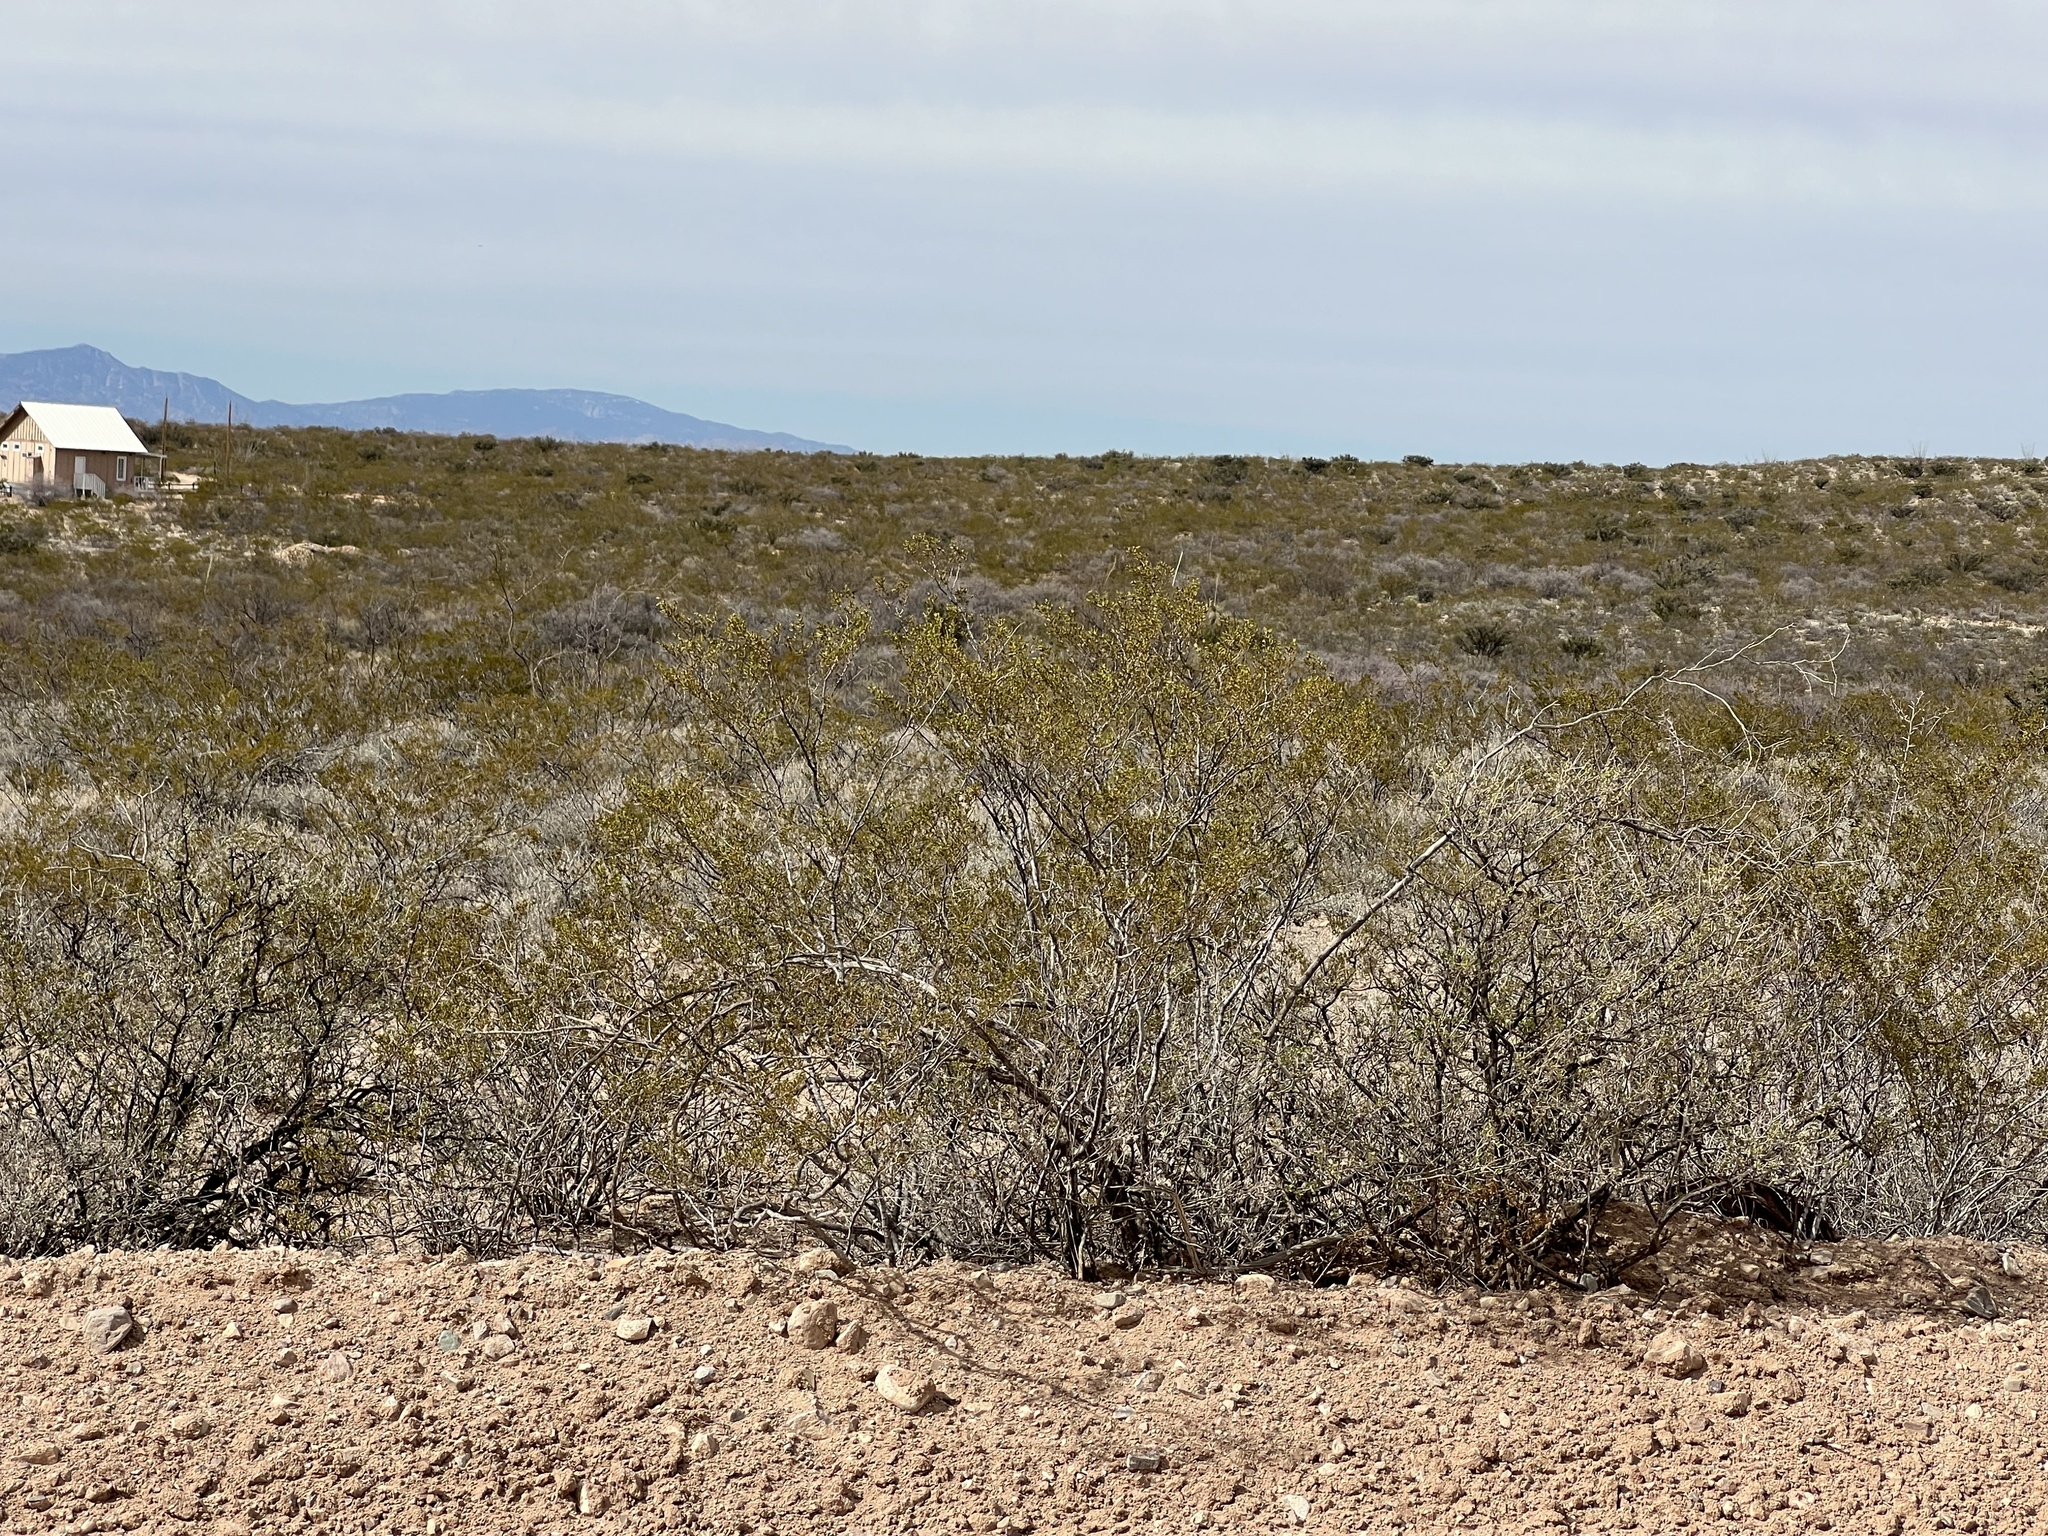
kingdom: Plantae
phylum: Tracheophyta
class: Magnoliopsida
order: Zygophyllales
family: Zygophyllaceae
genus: Larrea
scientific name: Larrea tridentata
